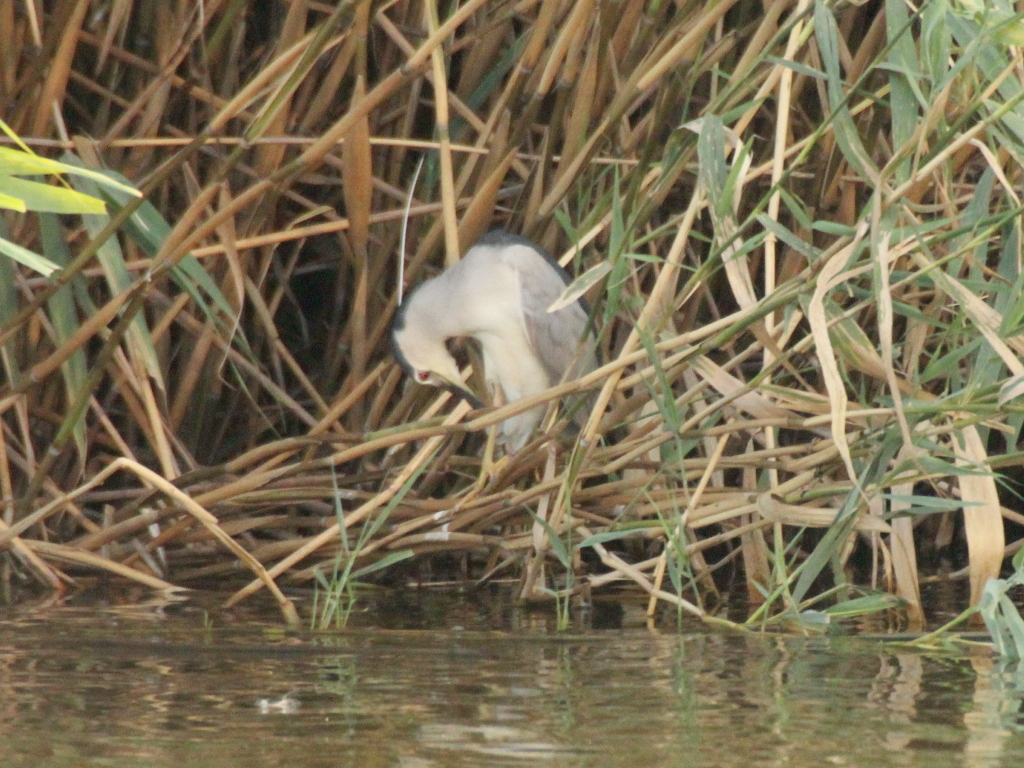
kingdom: Animalia
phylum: Chordata
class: Aves
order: Pelecaniformes
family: Ardeidae
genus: Nycticorax
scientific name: Nycticorax nycticorax
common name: Black-crowned night heron
